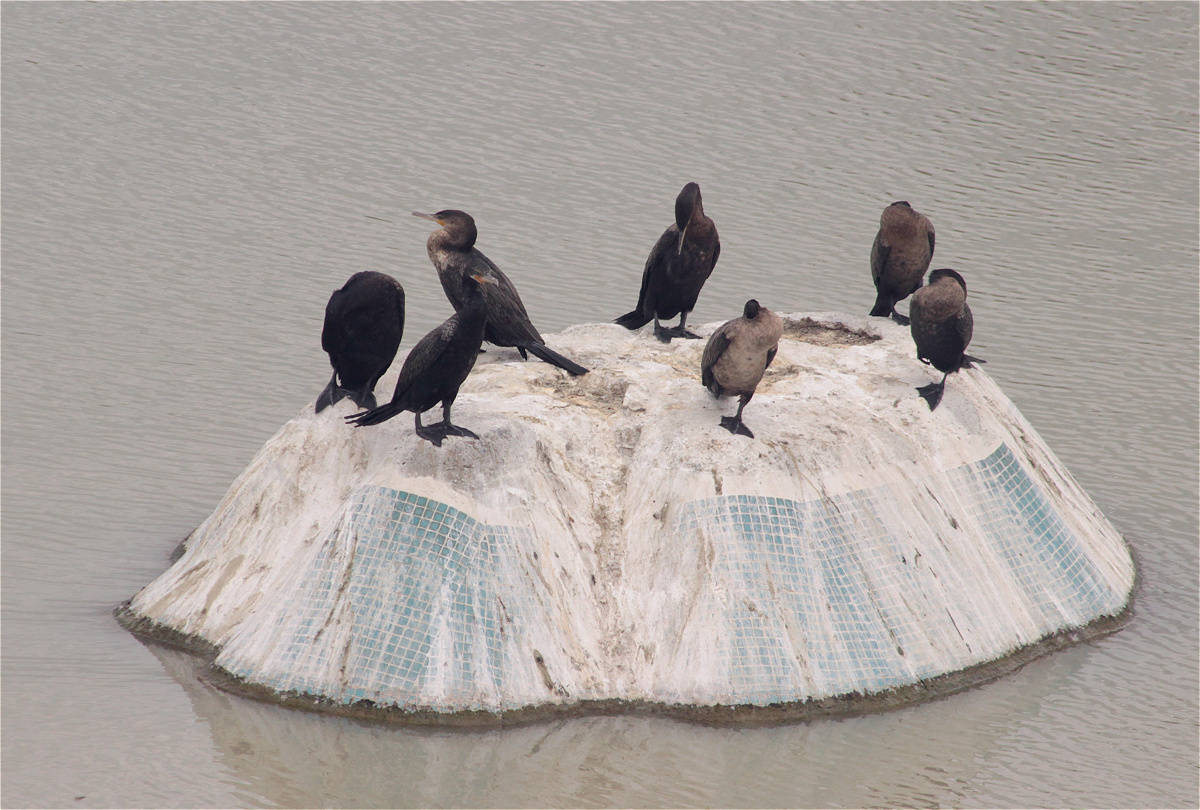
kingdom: Animalia
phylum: Chordata
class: Aves
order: Suliformes
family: Phalacrocoracidae
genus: Phalacrocorax
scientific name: Phalacrocorax brasilianus
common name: Neotropic cormorant
